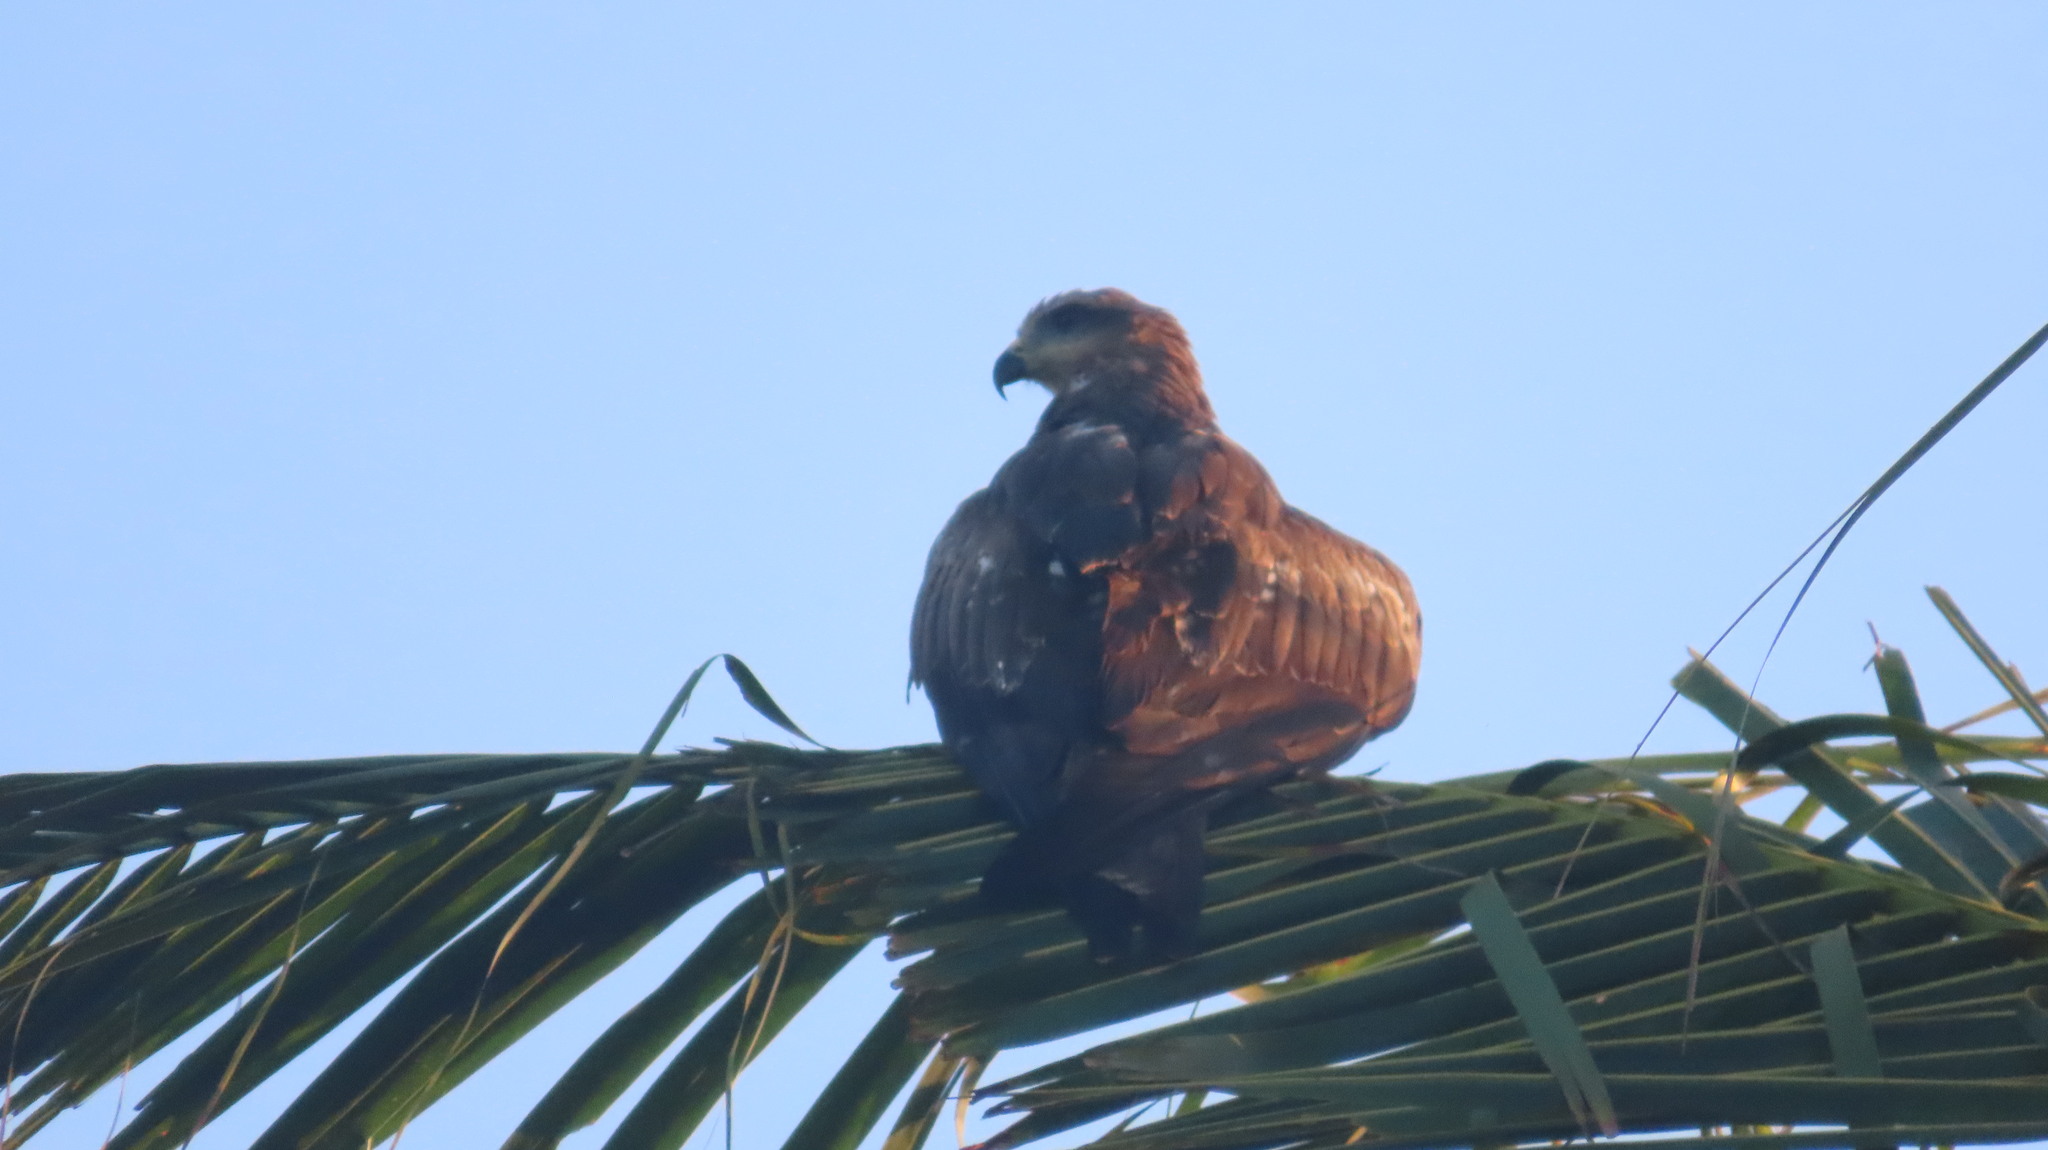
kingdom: Animalia
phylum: Chordata
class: Aves
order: Accipitriformes
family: Accipitridae
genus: Milvus
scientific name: Milvus migrans
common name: Black kite
